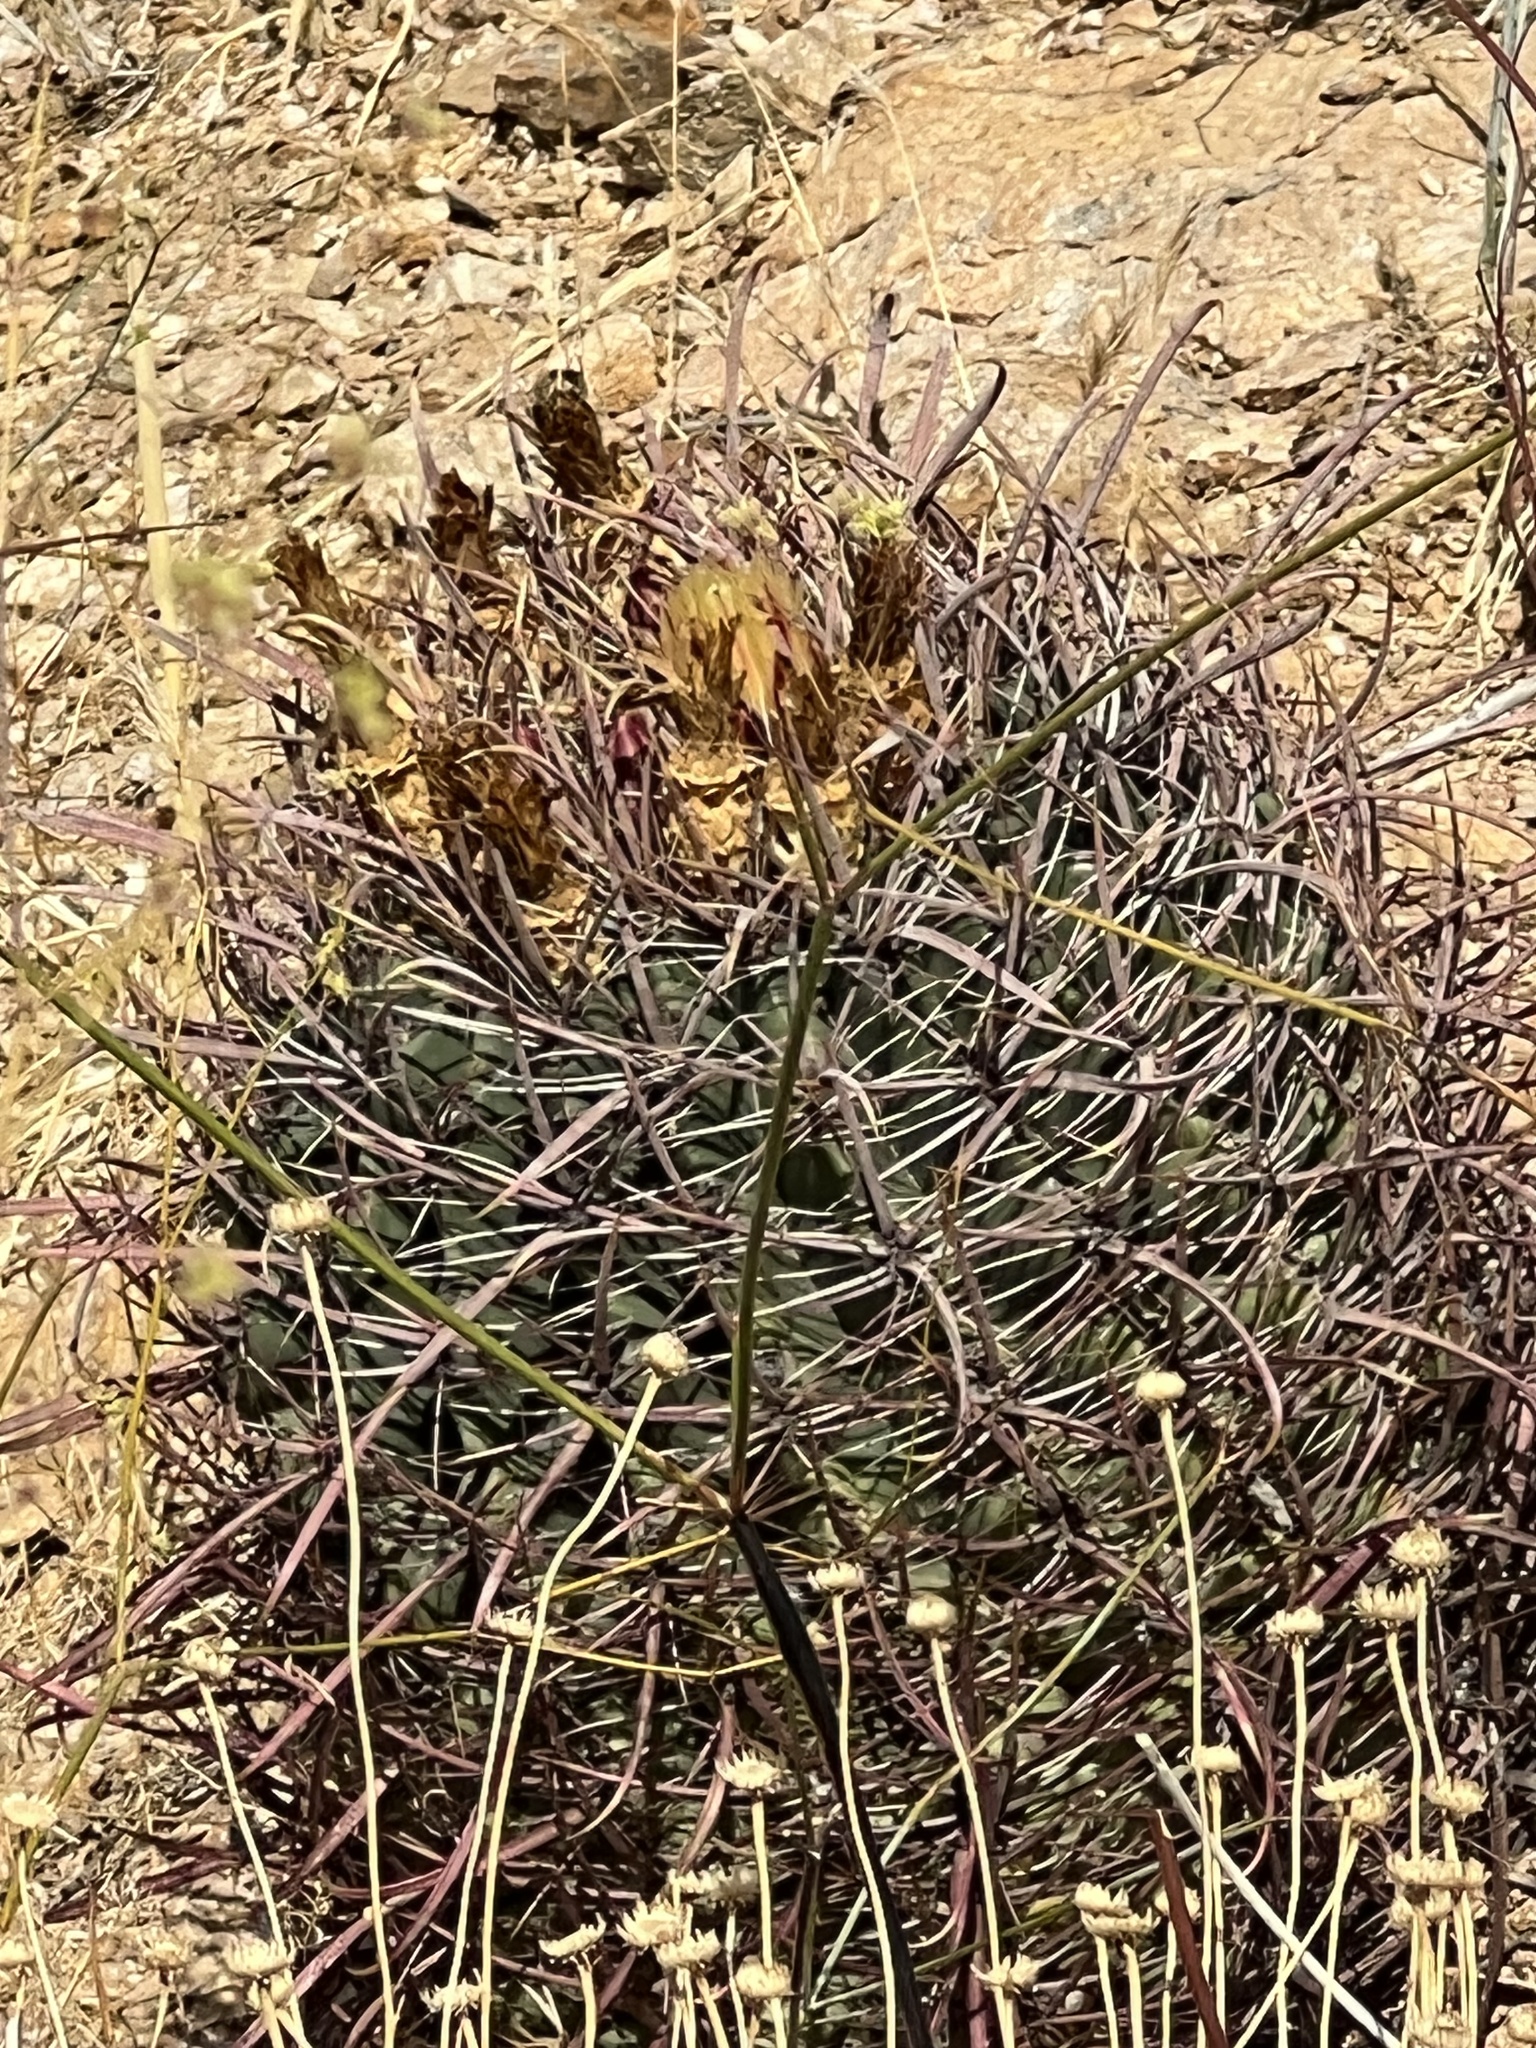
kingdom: Plantae
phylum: Tracheophyta
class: Magnoliopsida
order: Caryophyllales
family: Cactaceae
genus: Ferocactus
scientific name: Ferocactus cylindraceus
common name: California barrel cactus
